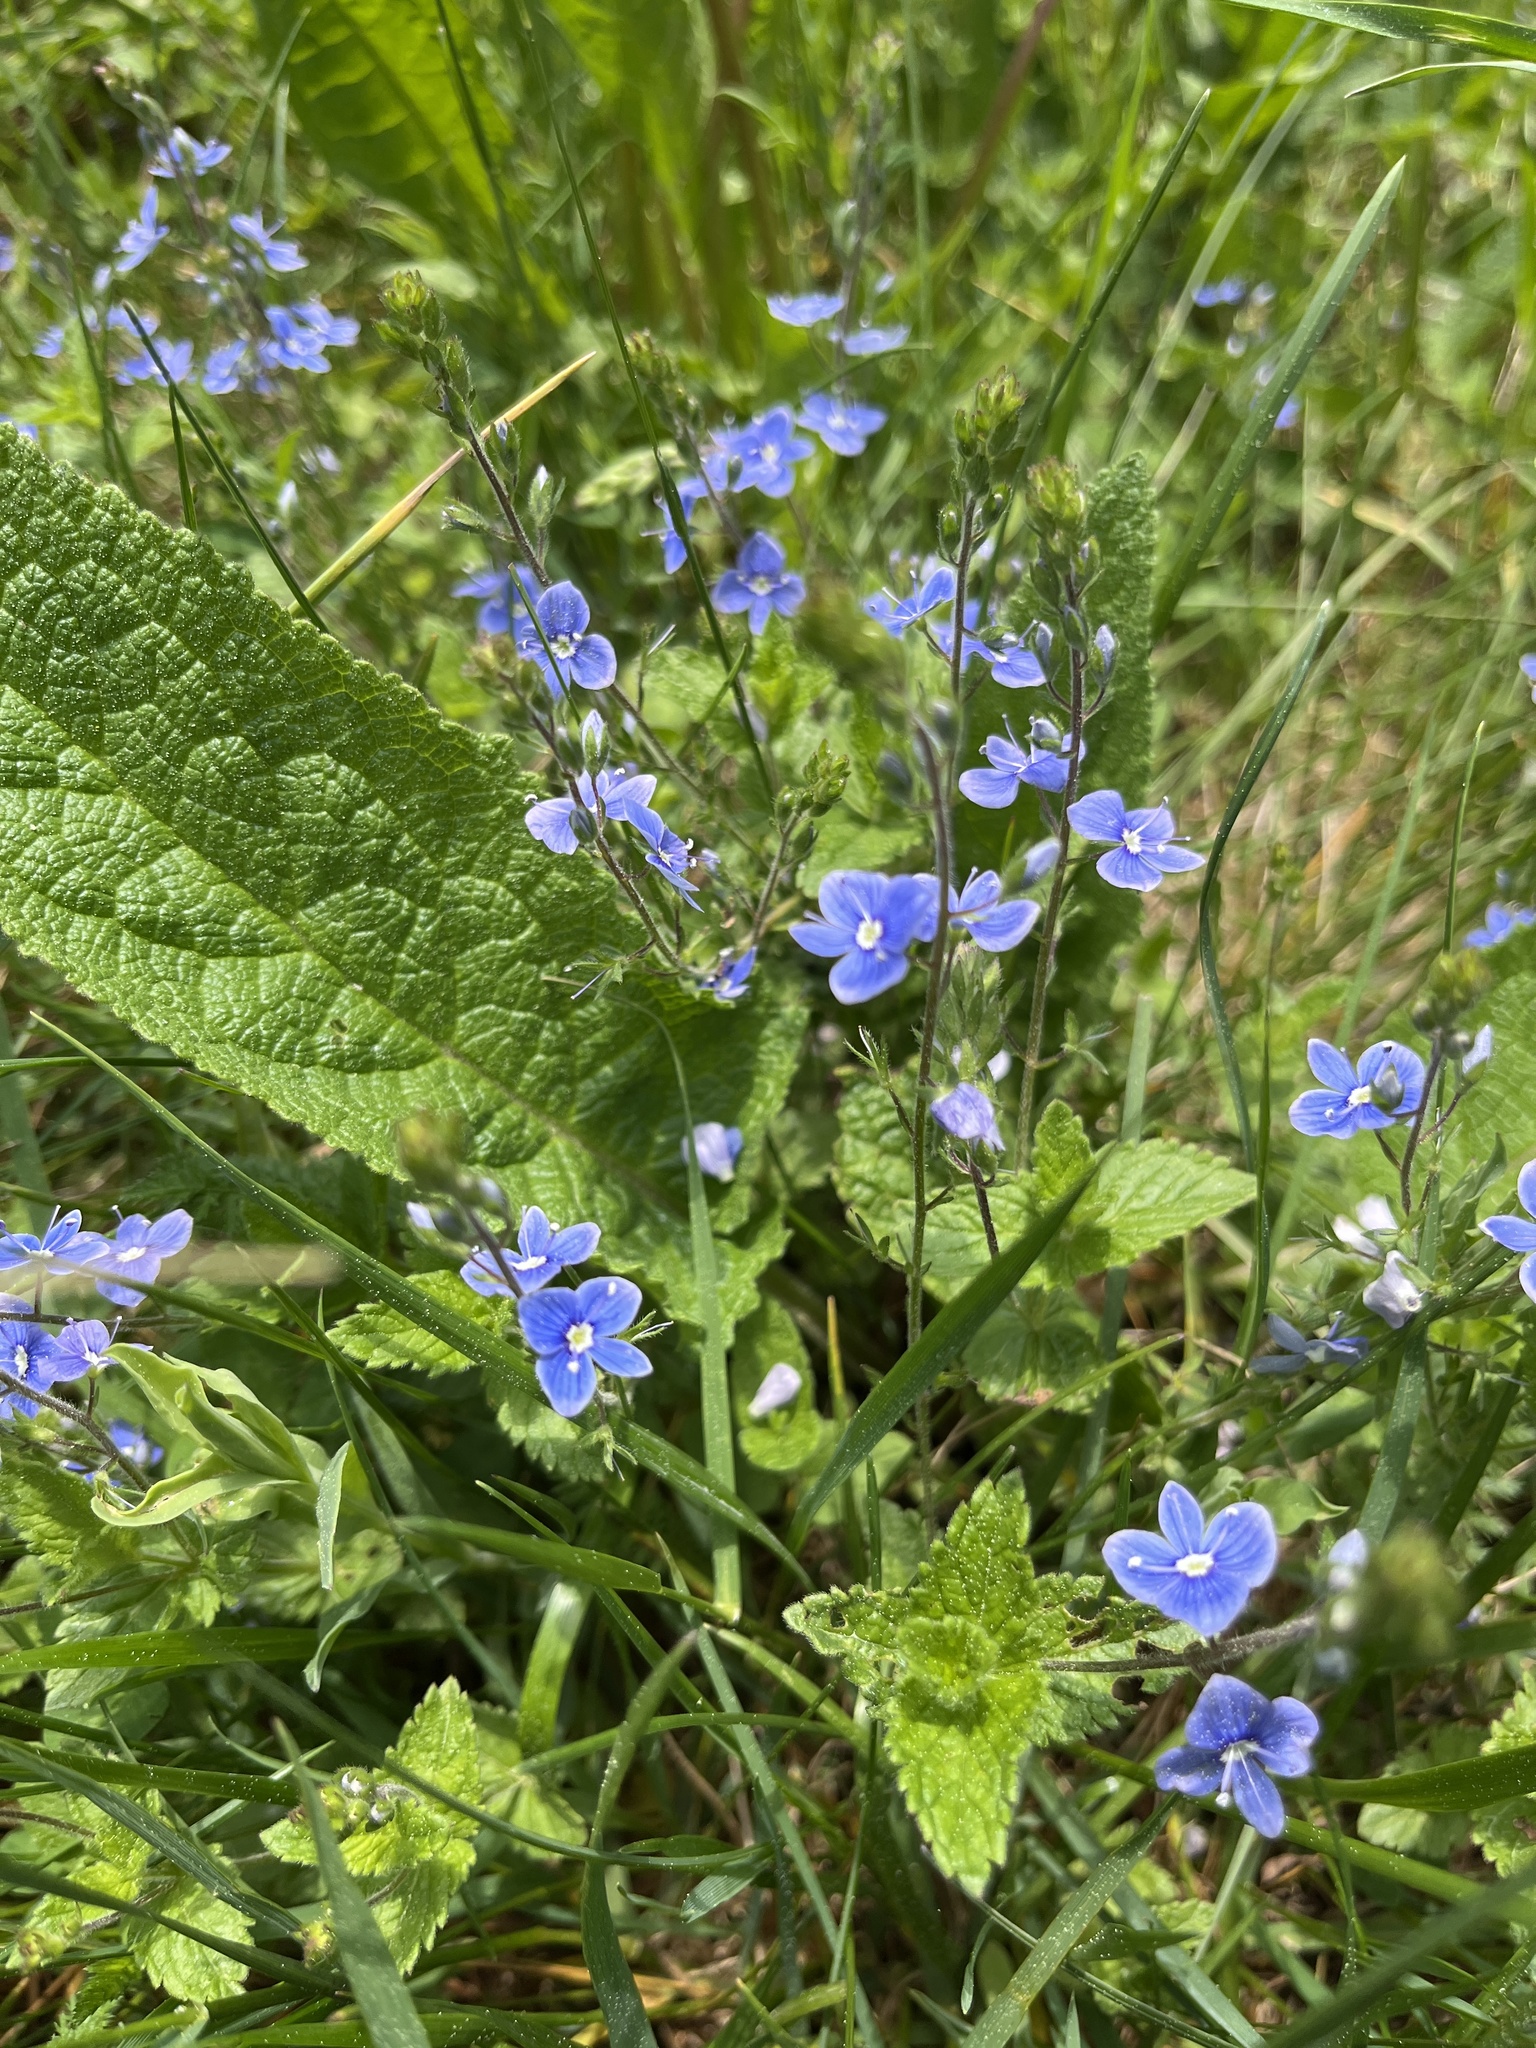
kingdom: Plantae
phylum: Tracheophyta
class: Magnoliopsida
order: Lamiales
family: Plantaginaceae
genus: Veronica
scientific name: Veronica chamaedrys
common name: Germander speedwell
